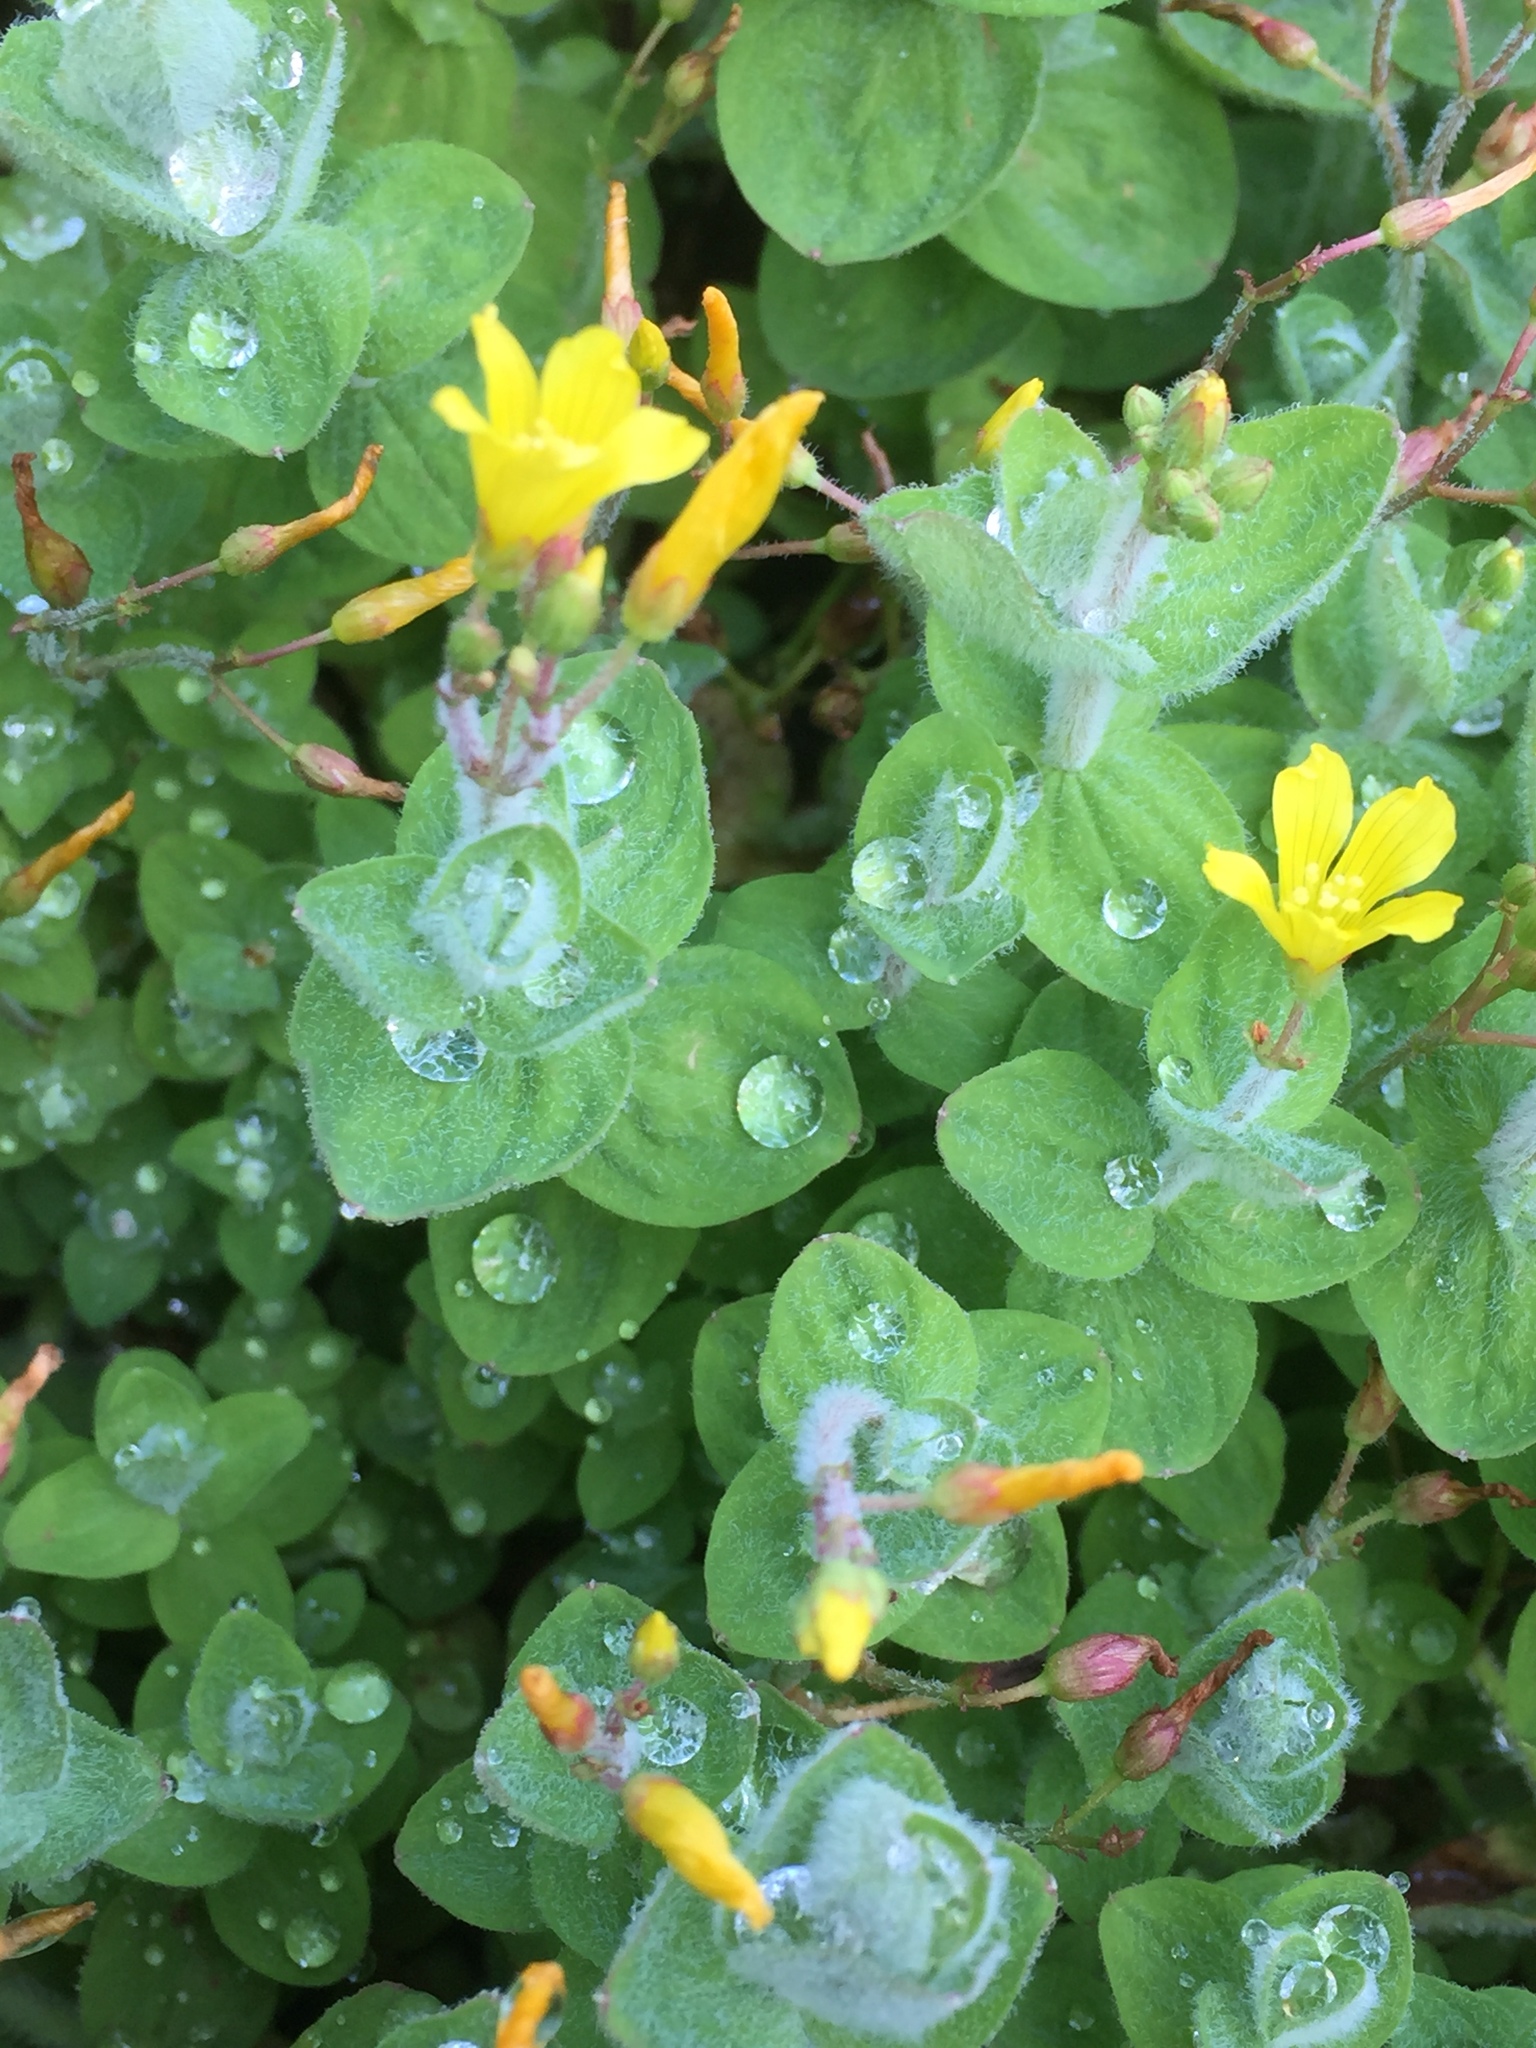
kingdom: Plantae
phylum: Tracheophyta
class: Magnoliopsida
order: Malpighiales
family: Hypericaceae
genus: Hypericum
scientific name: Hypericum elodes
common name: Marsh st. john's-wort
